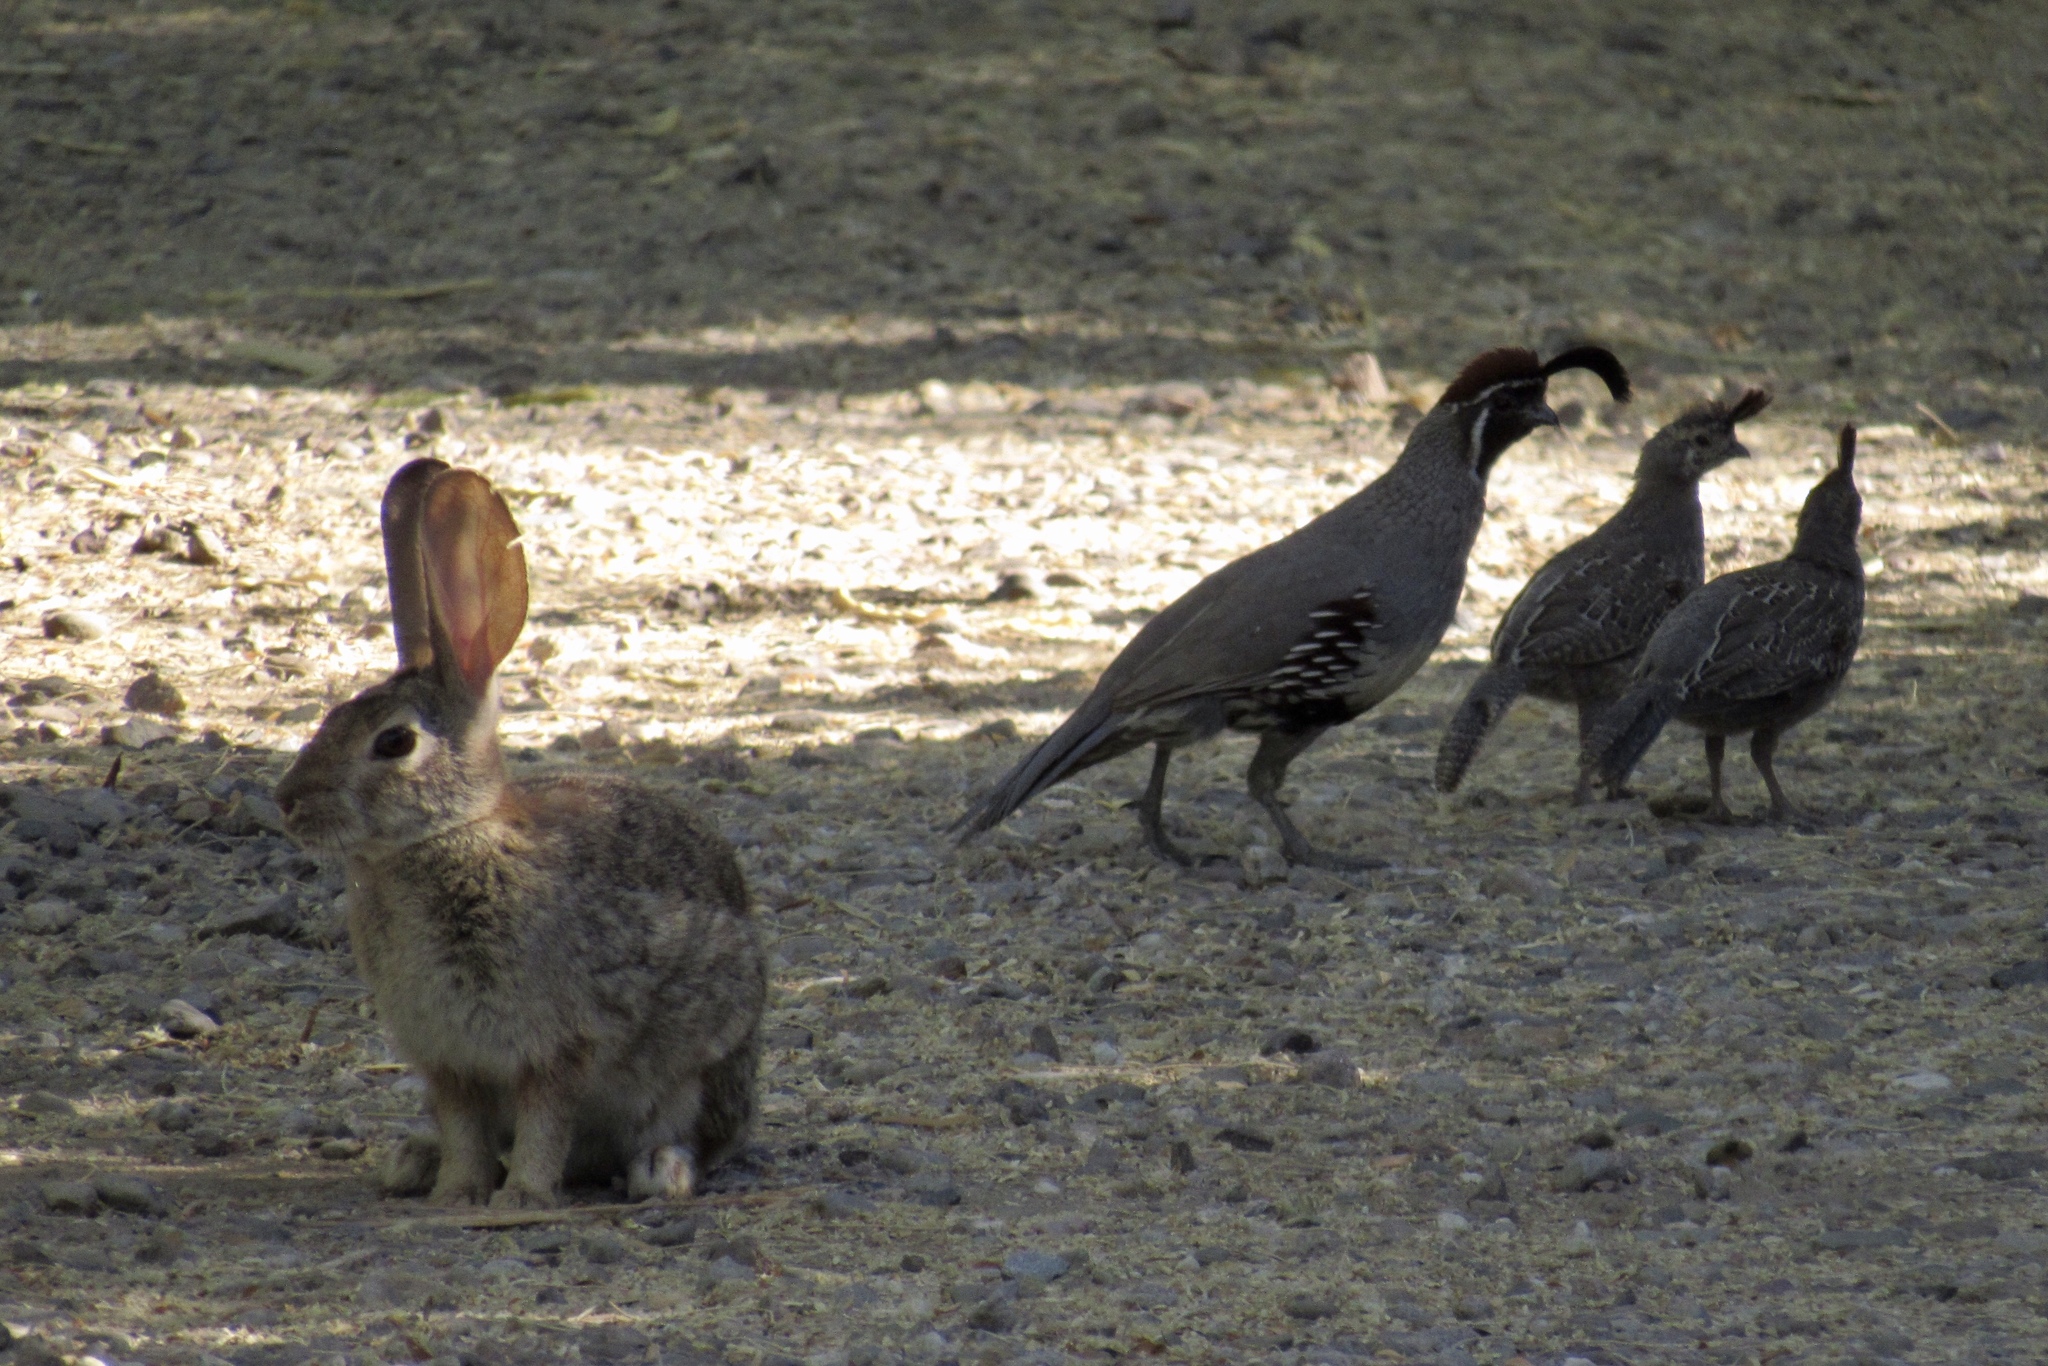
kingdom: Animalia
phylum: Chordata
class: Mammalia
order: Lagomorpha
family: Leporidae
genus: Sylvilagus
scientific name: Sylvilagus audubonii
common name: Desert cottontail
